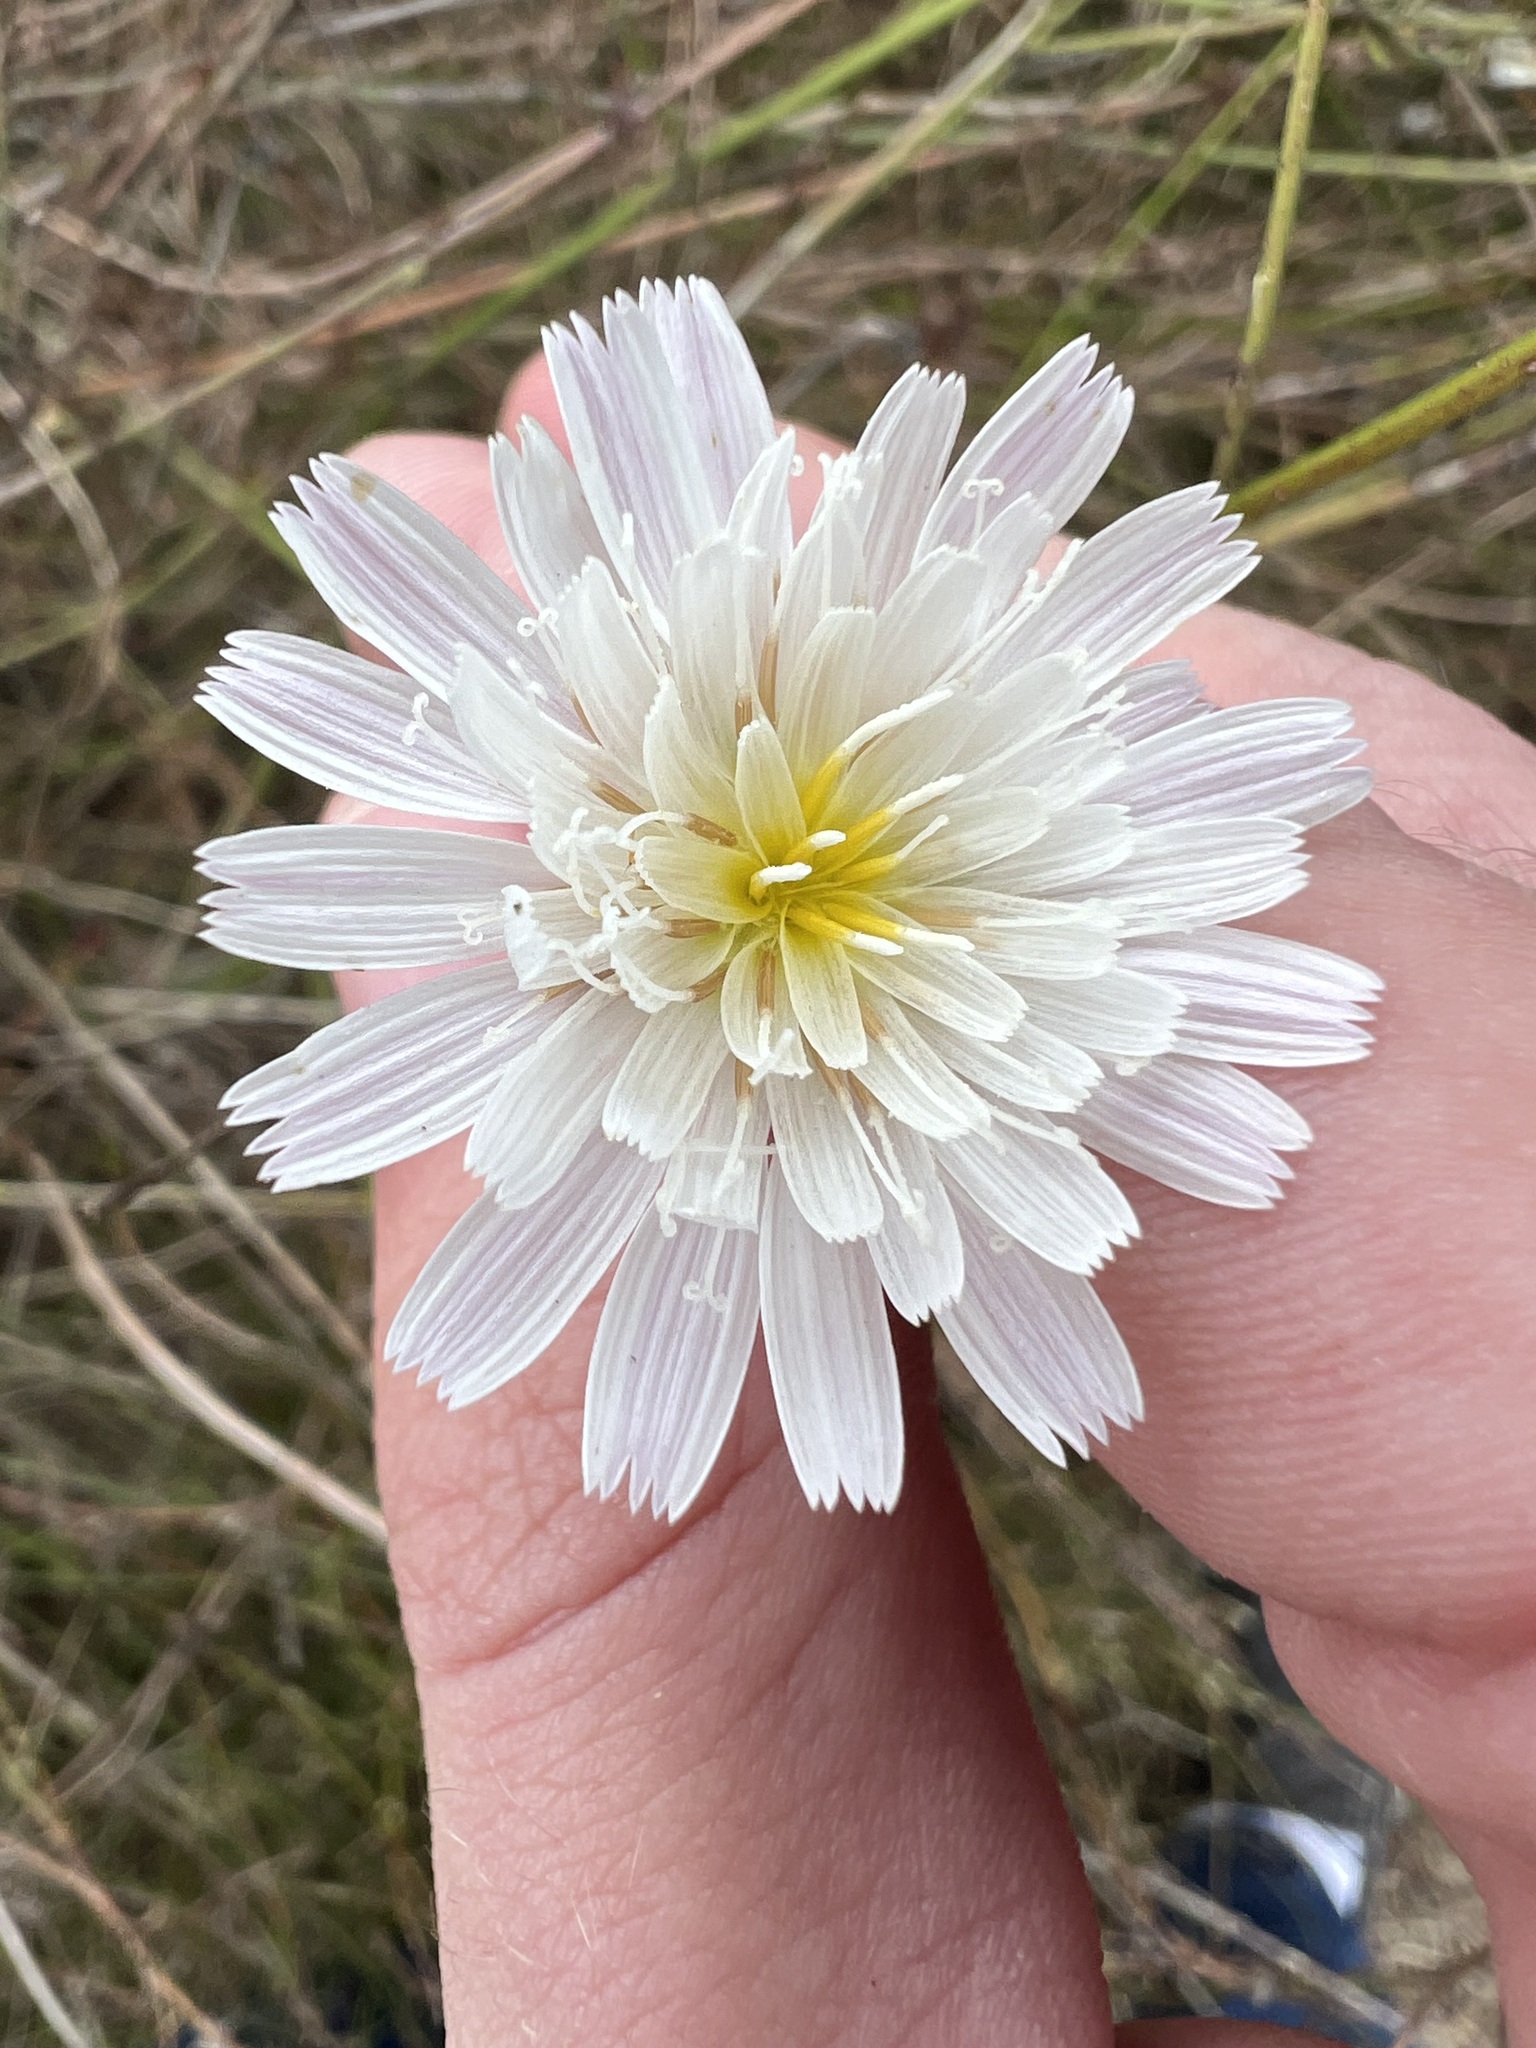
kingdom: Plantae
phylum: Tracheophyta
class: Magnoliopsida
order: Asterales
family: Asteraceae
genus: Malacothrix
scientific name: Malacothrix saxatilis
